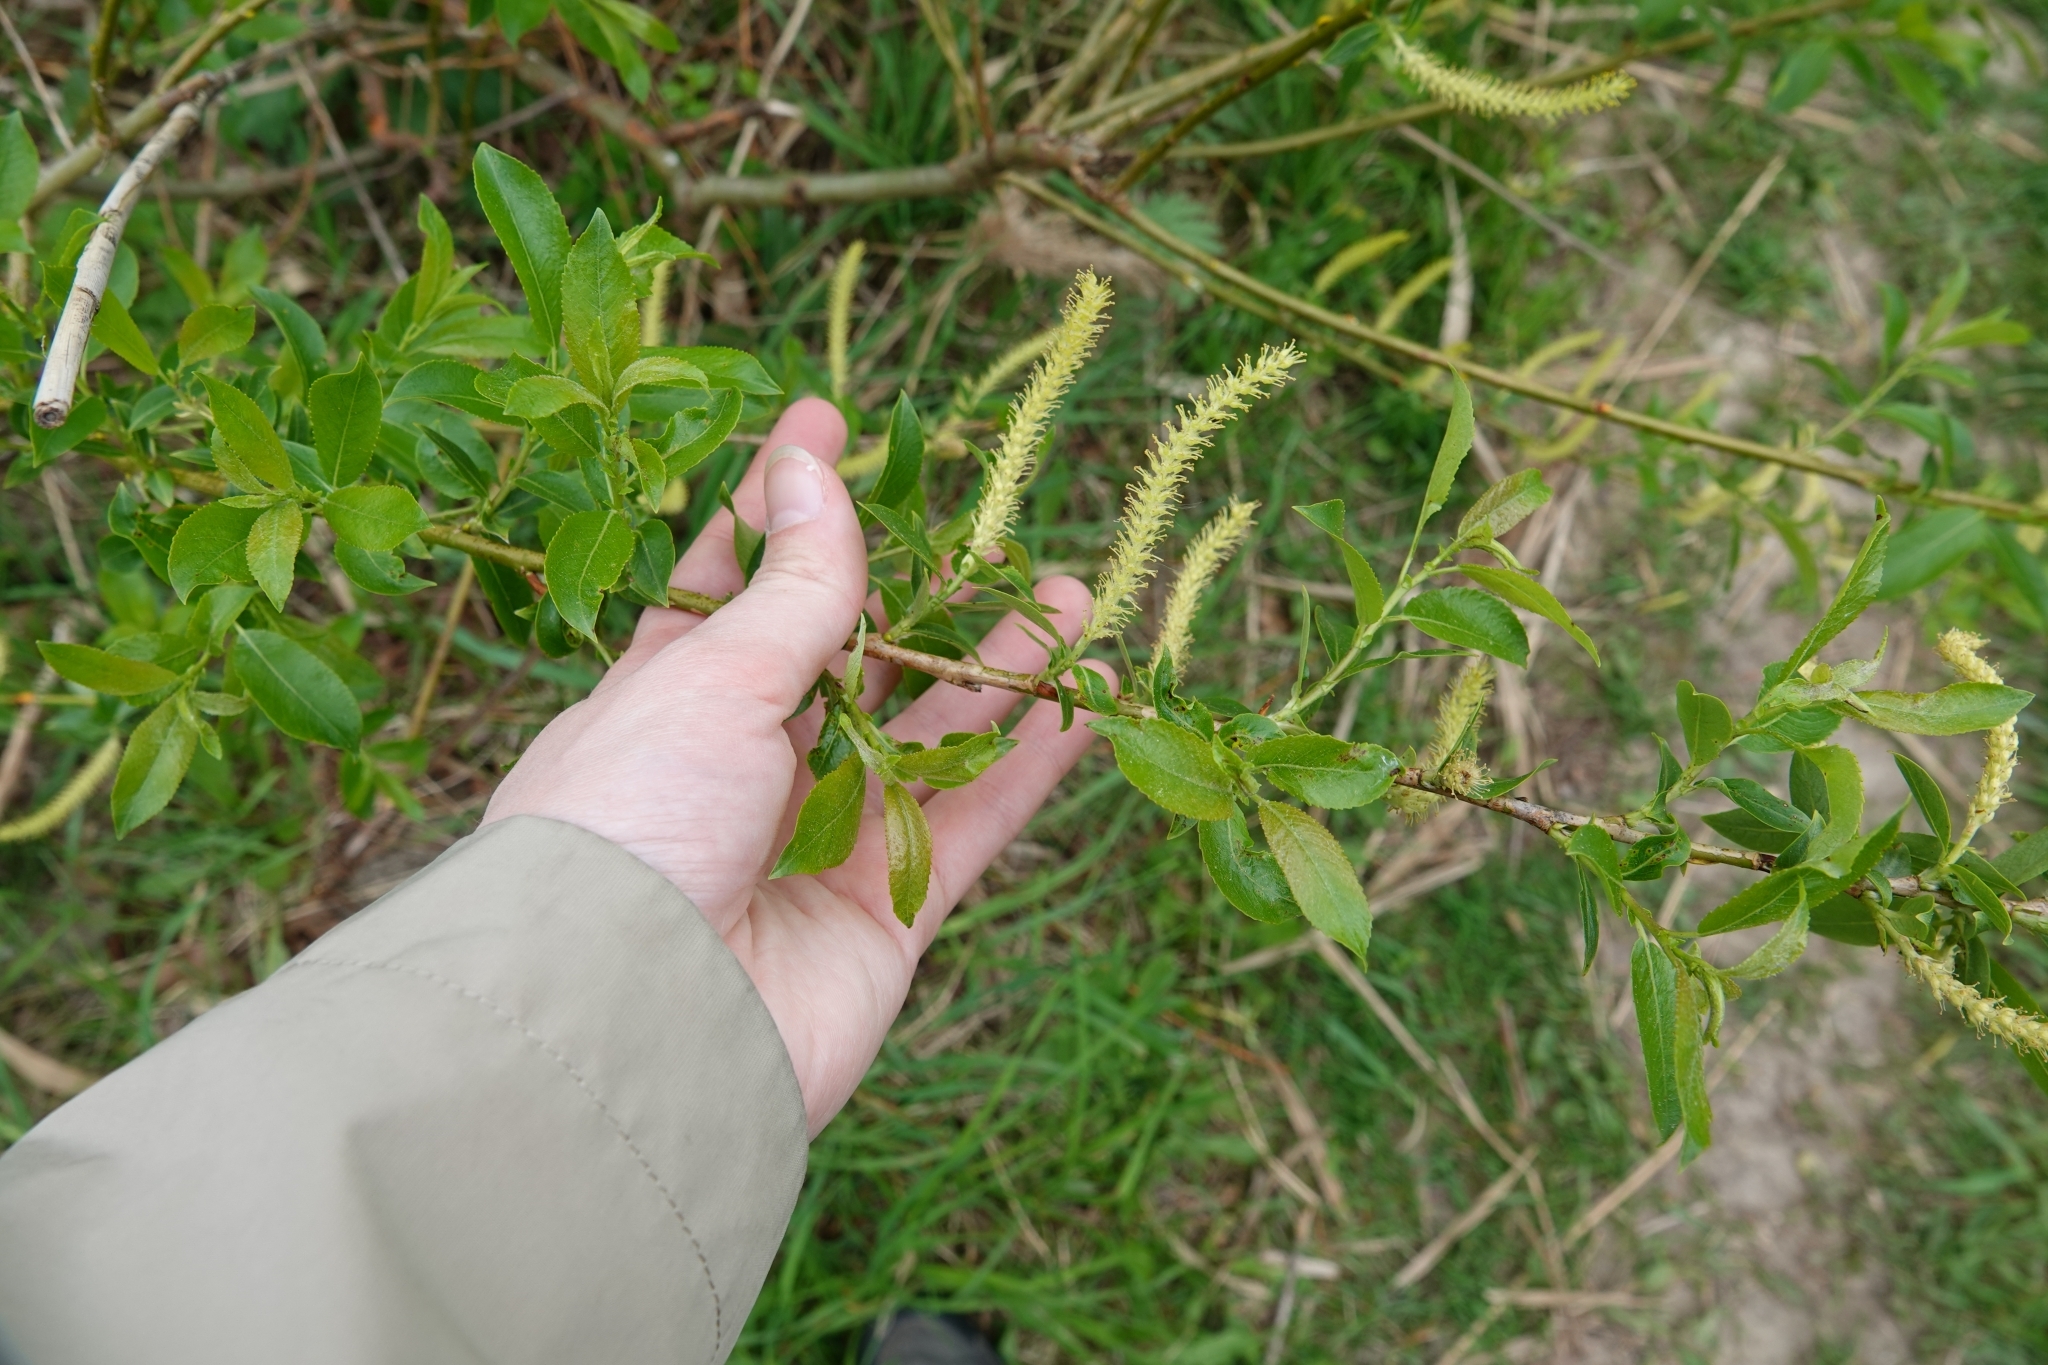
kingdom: Plantae
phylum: Tracheophyta
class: Magnoliopsida
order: Malpighiales
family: Salicaceae
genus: Salix
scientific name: Salix triandra
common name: Almond willow
